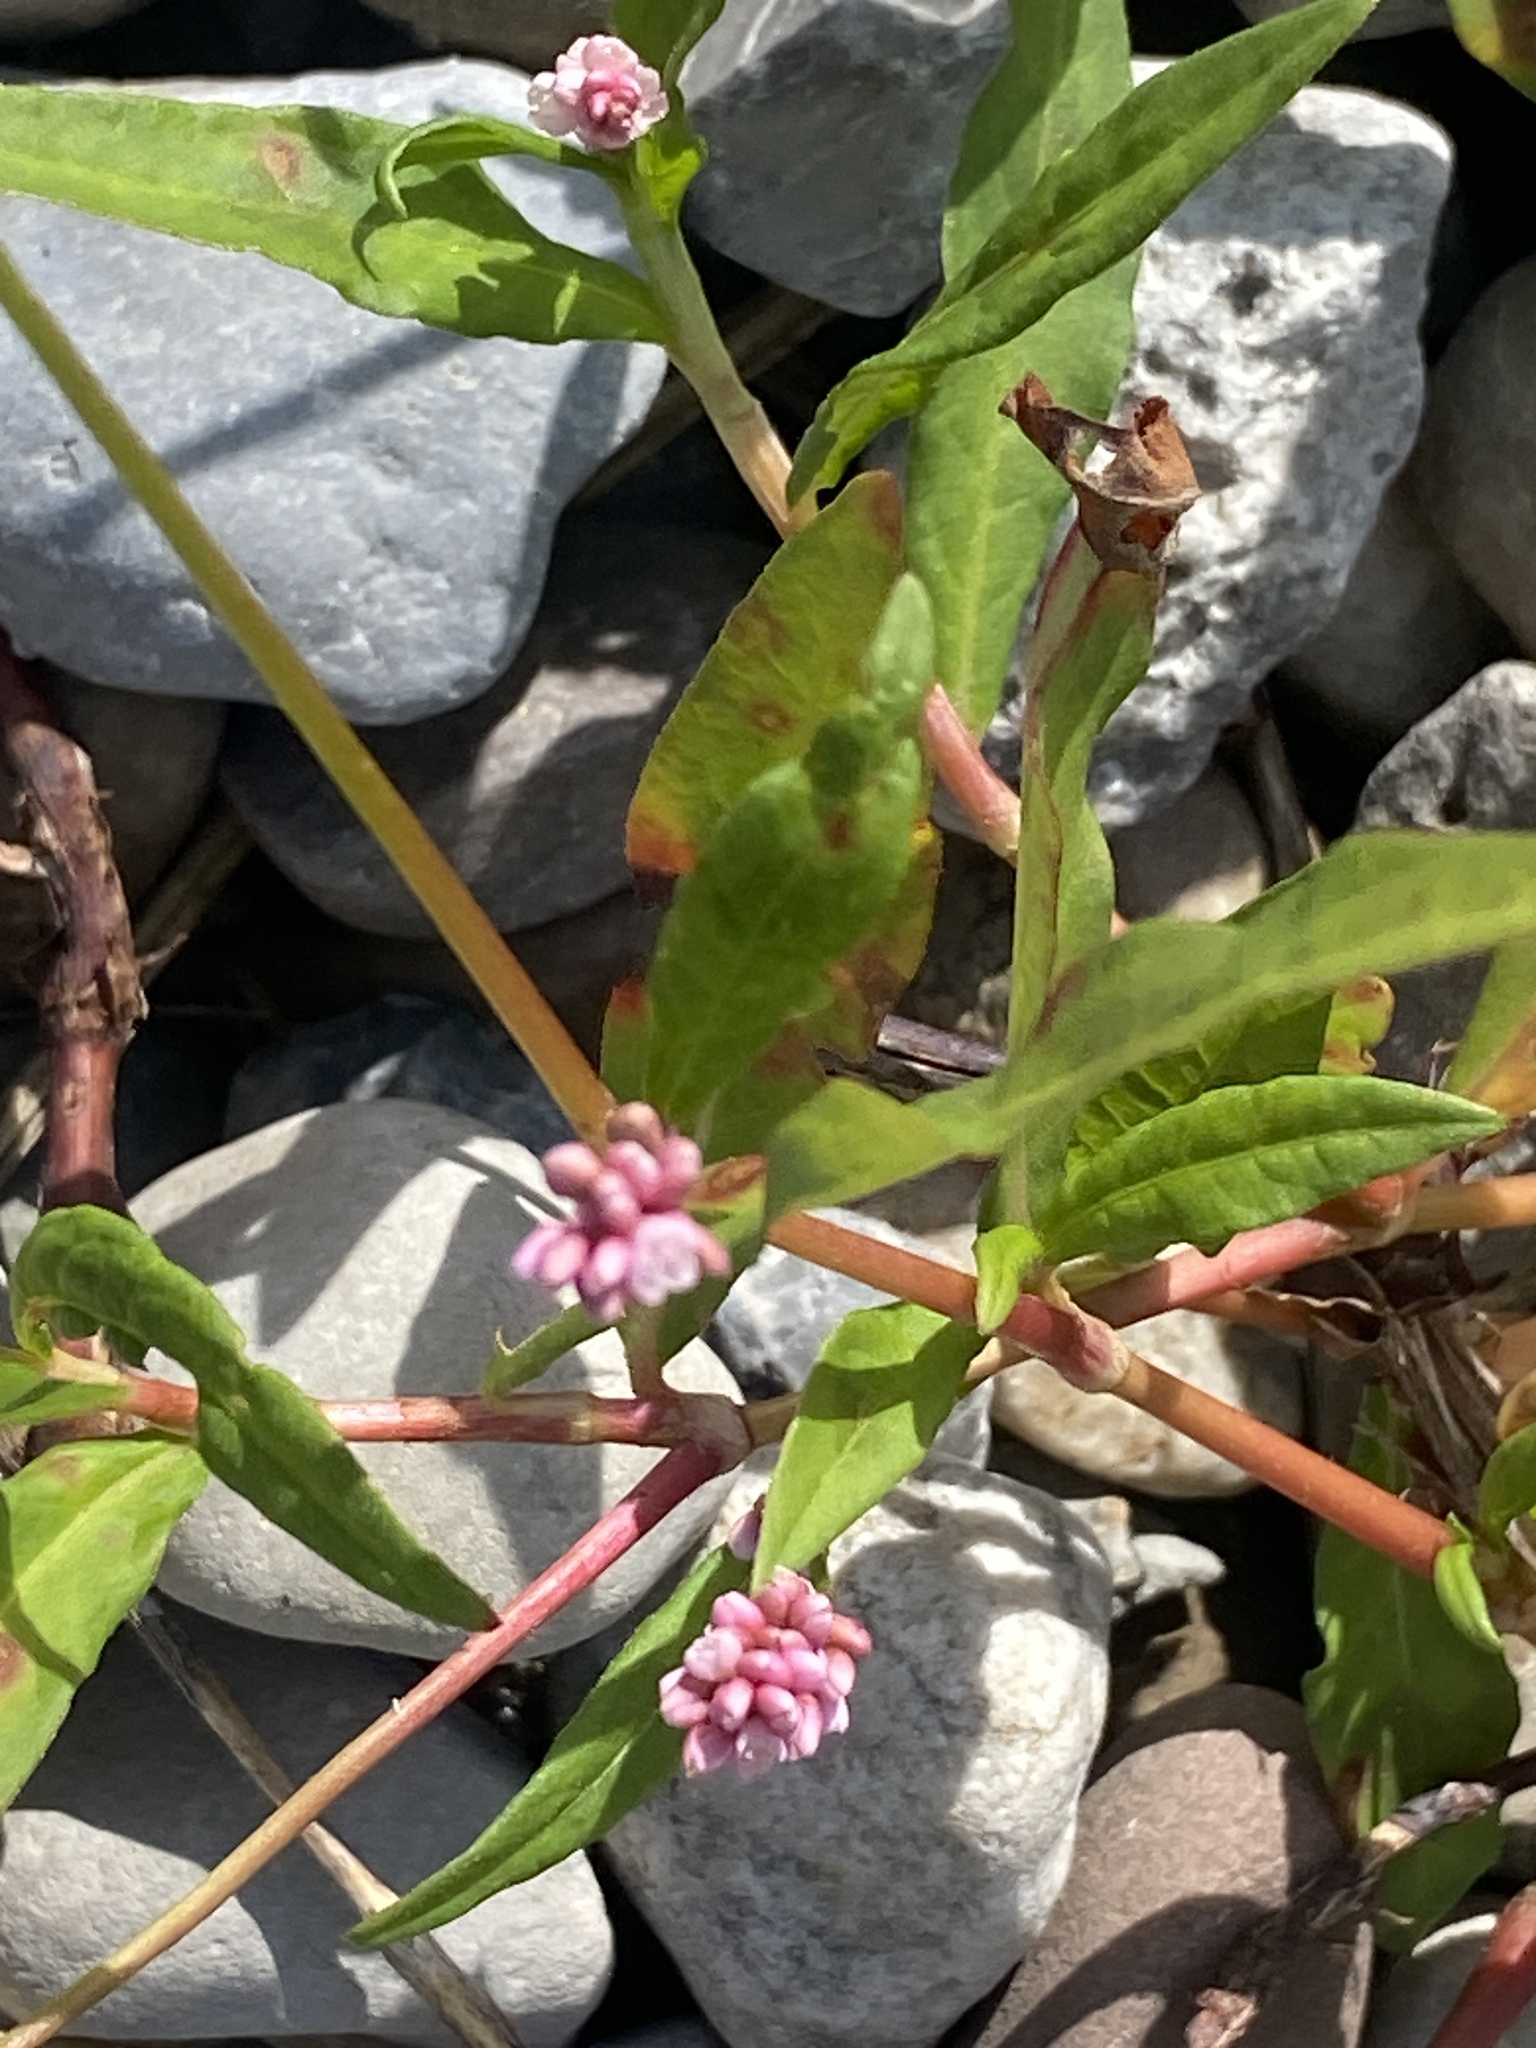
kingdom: Plantae
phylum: Tracheophyta
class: Magnoliopsida
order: Caryophyllales
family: Polygonaceae
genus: Persicaria
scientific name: Persicaria maculosa
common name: Redshank
